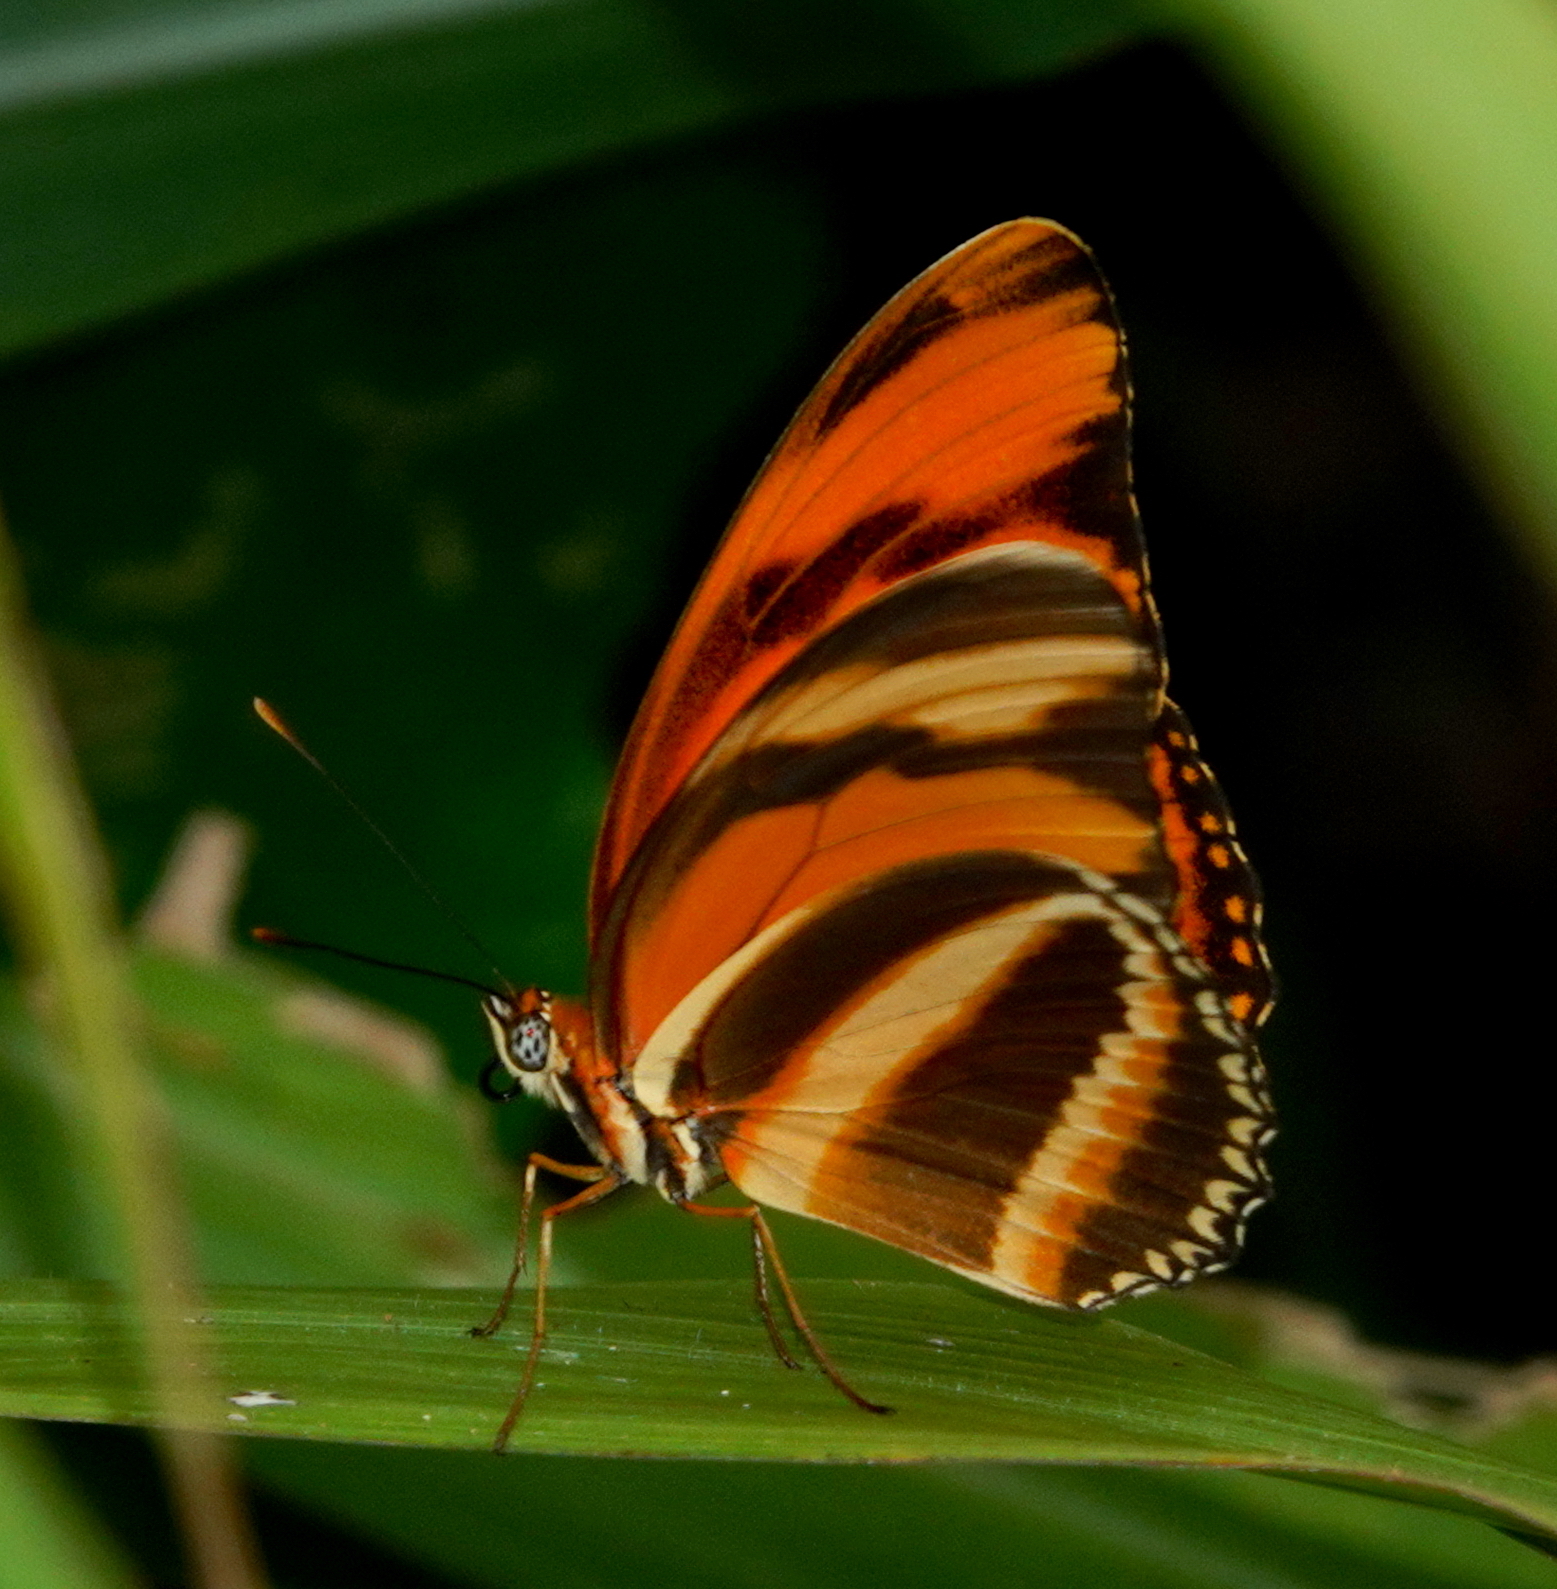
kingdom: Animalia
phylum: Arthropoda
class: Insecta
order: Lepidoptera
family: Nymphalidae
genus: Dryadula
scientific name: Dryadula phaetusa
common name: Banded orange heliconian
